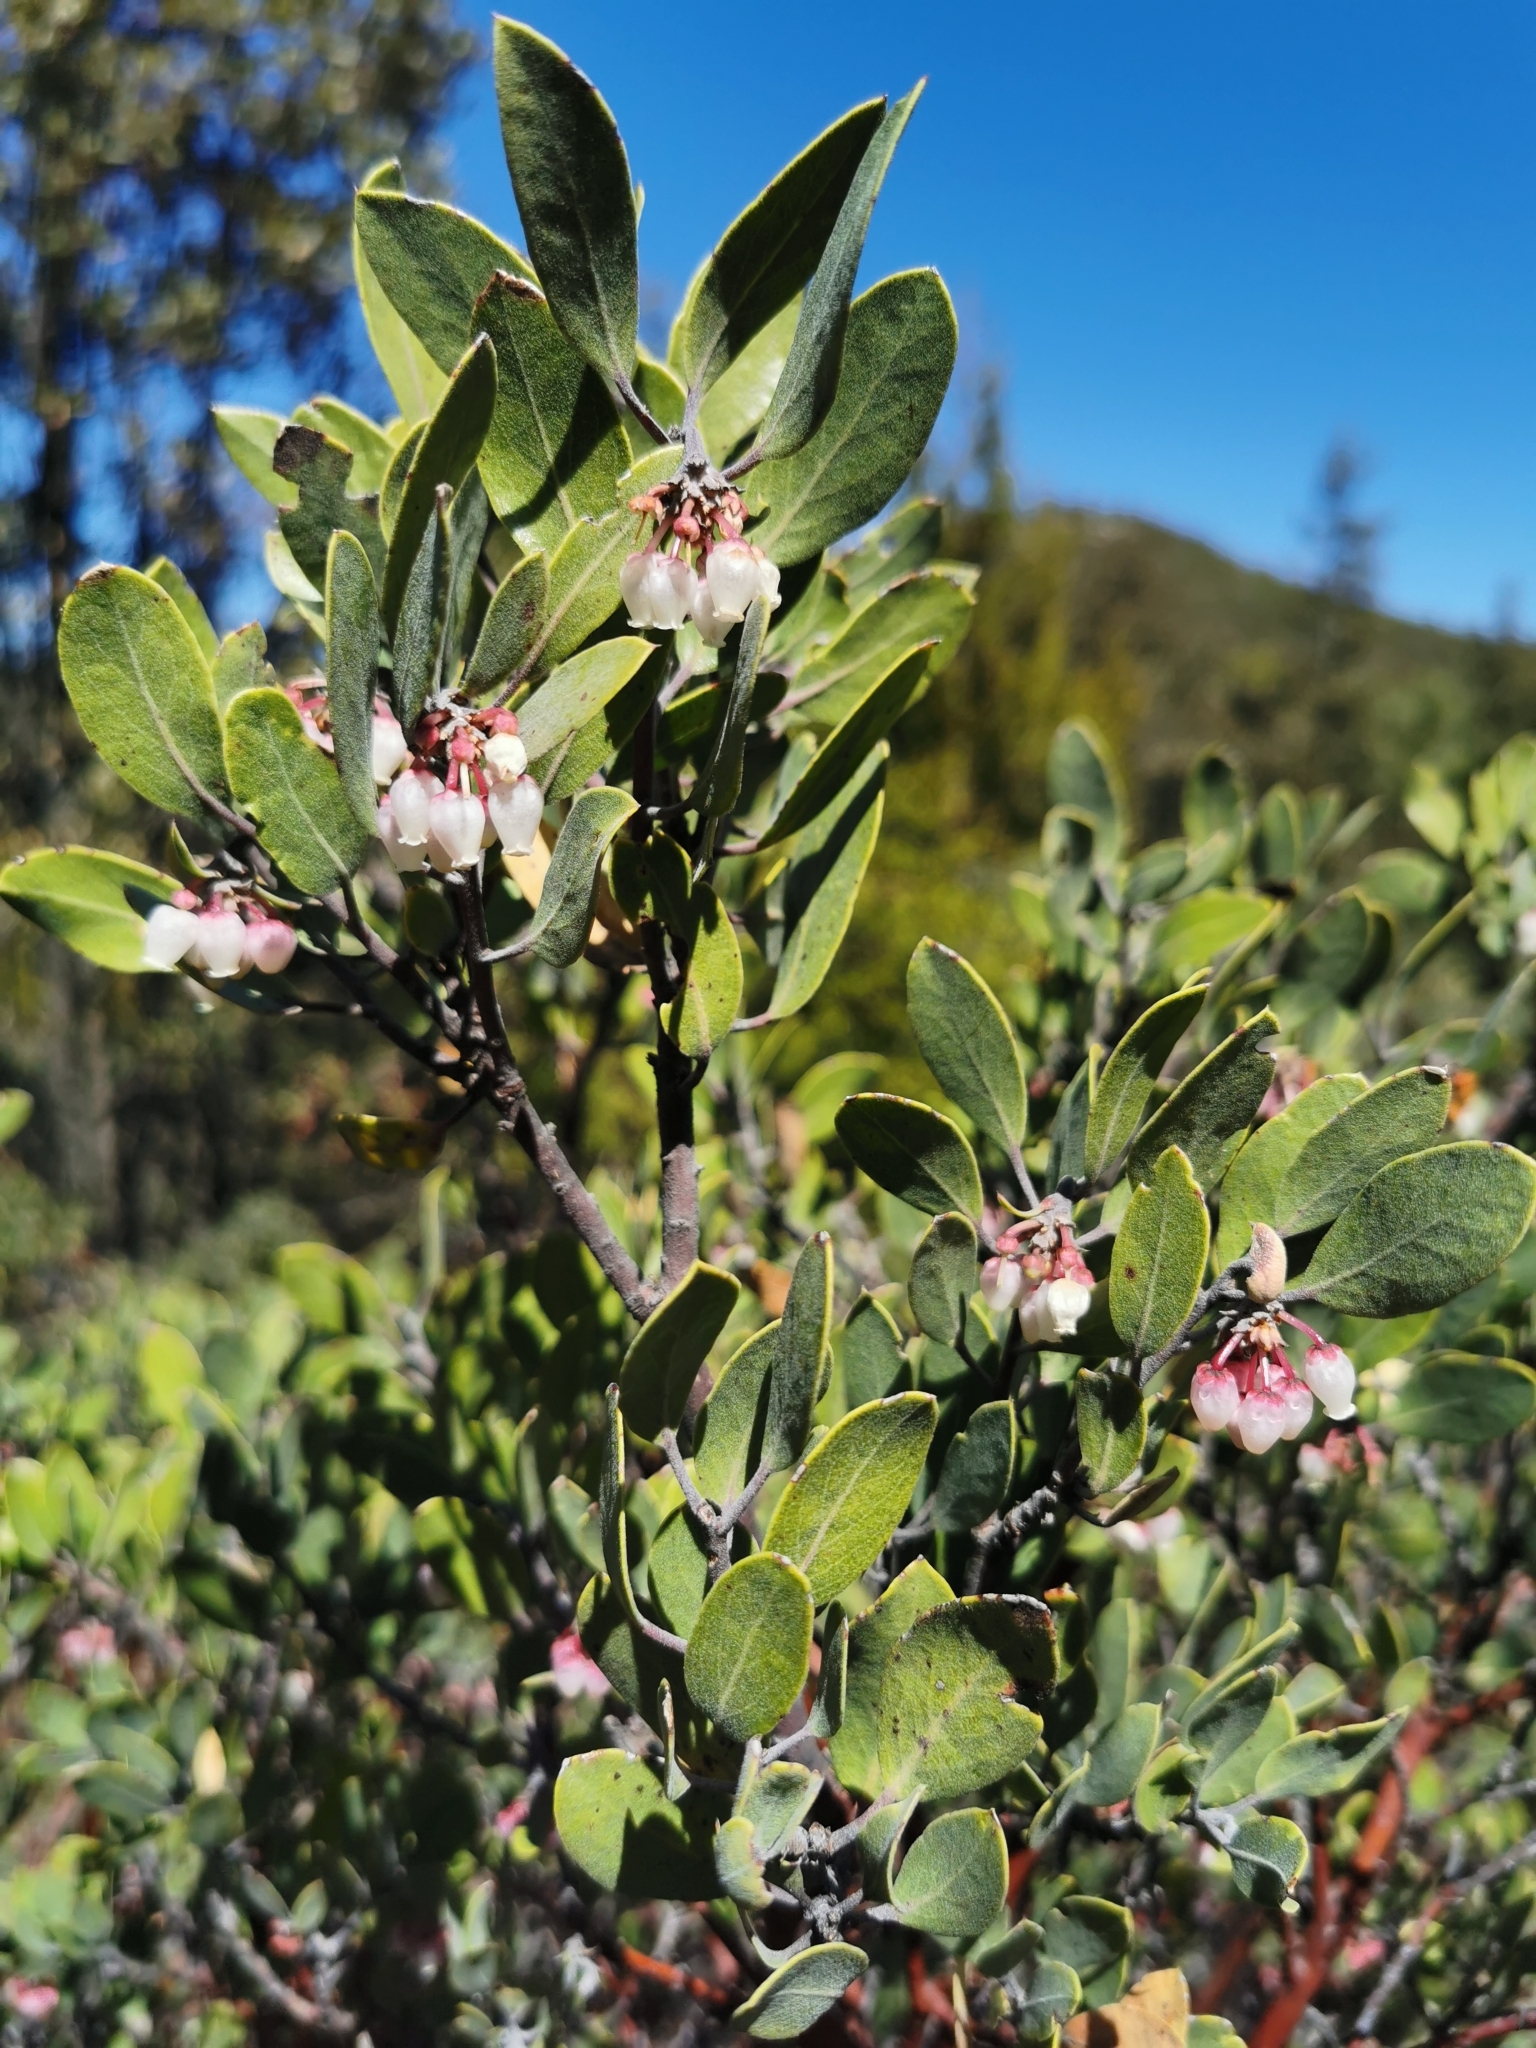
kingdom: Plantae
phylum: Tracheophyta
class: Magnoliopsida
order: Ericales
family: Ericaceae
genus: Arctostaphylos
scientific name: Arctostaphylos pungens
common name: Mexican manzanita
